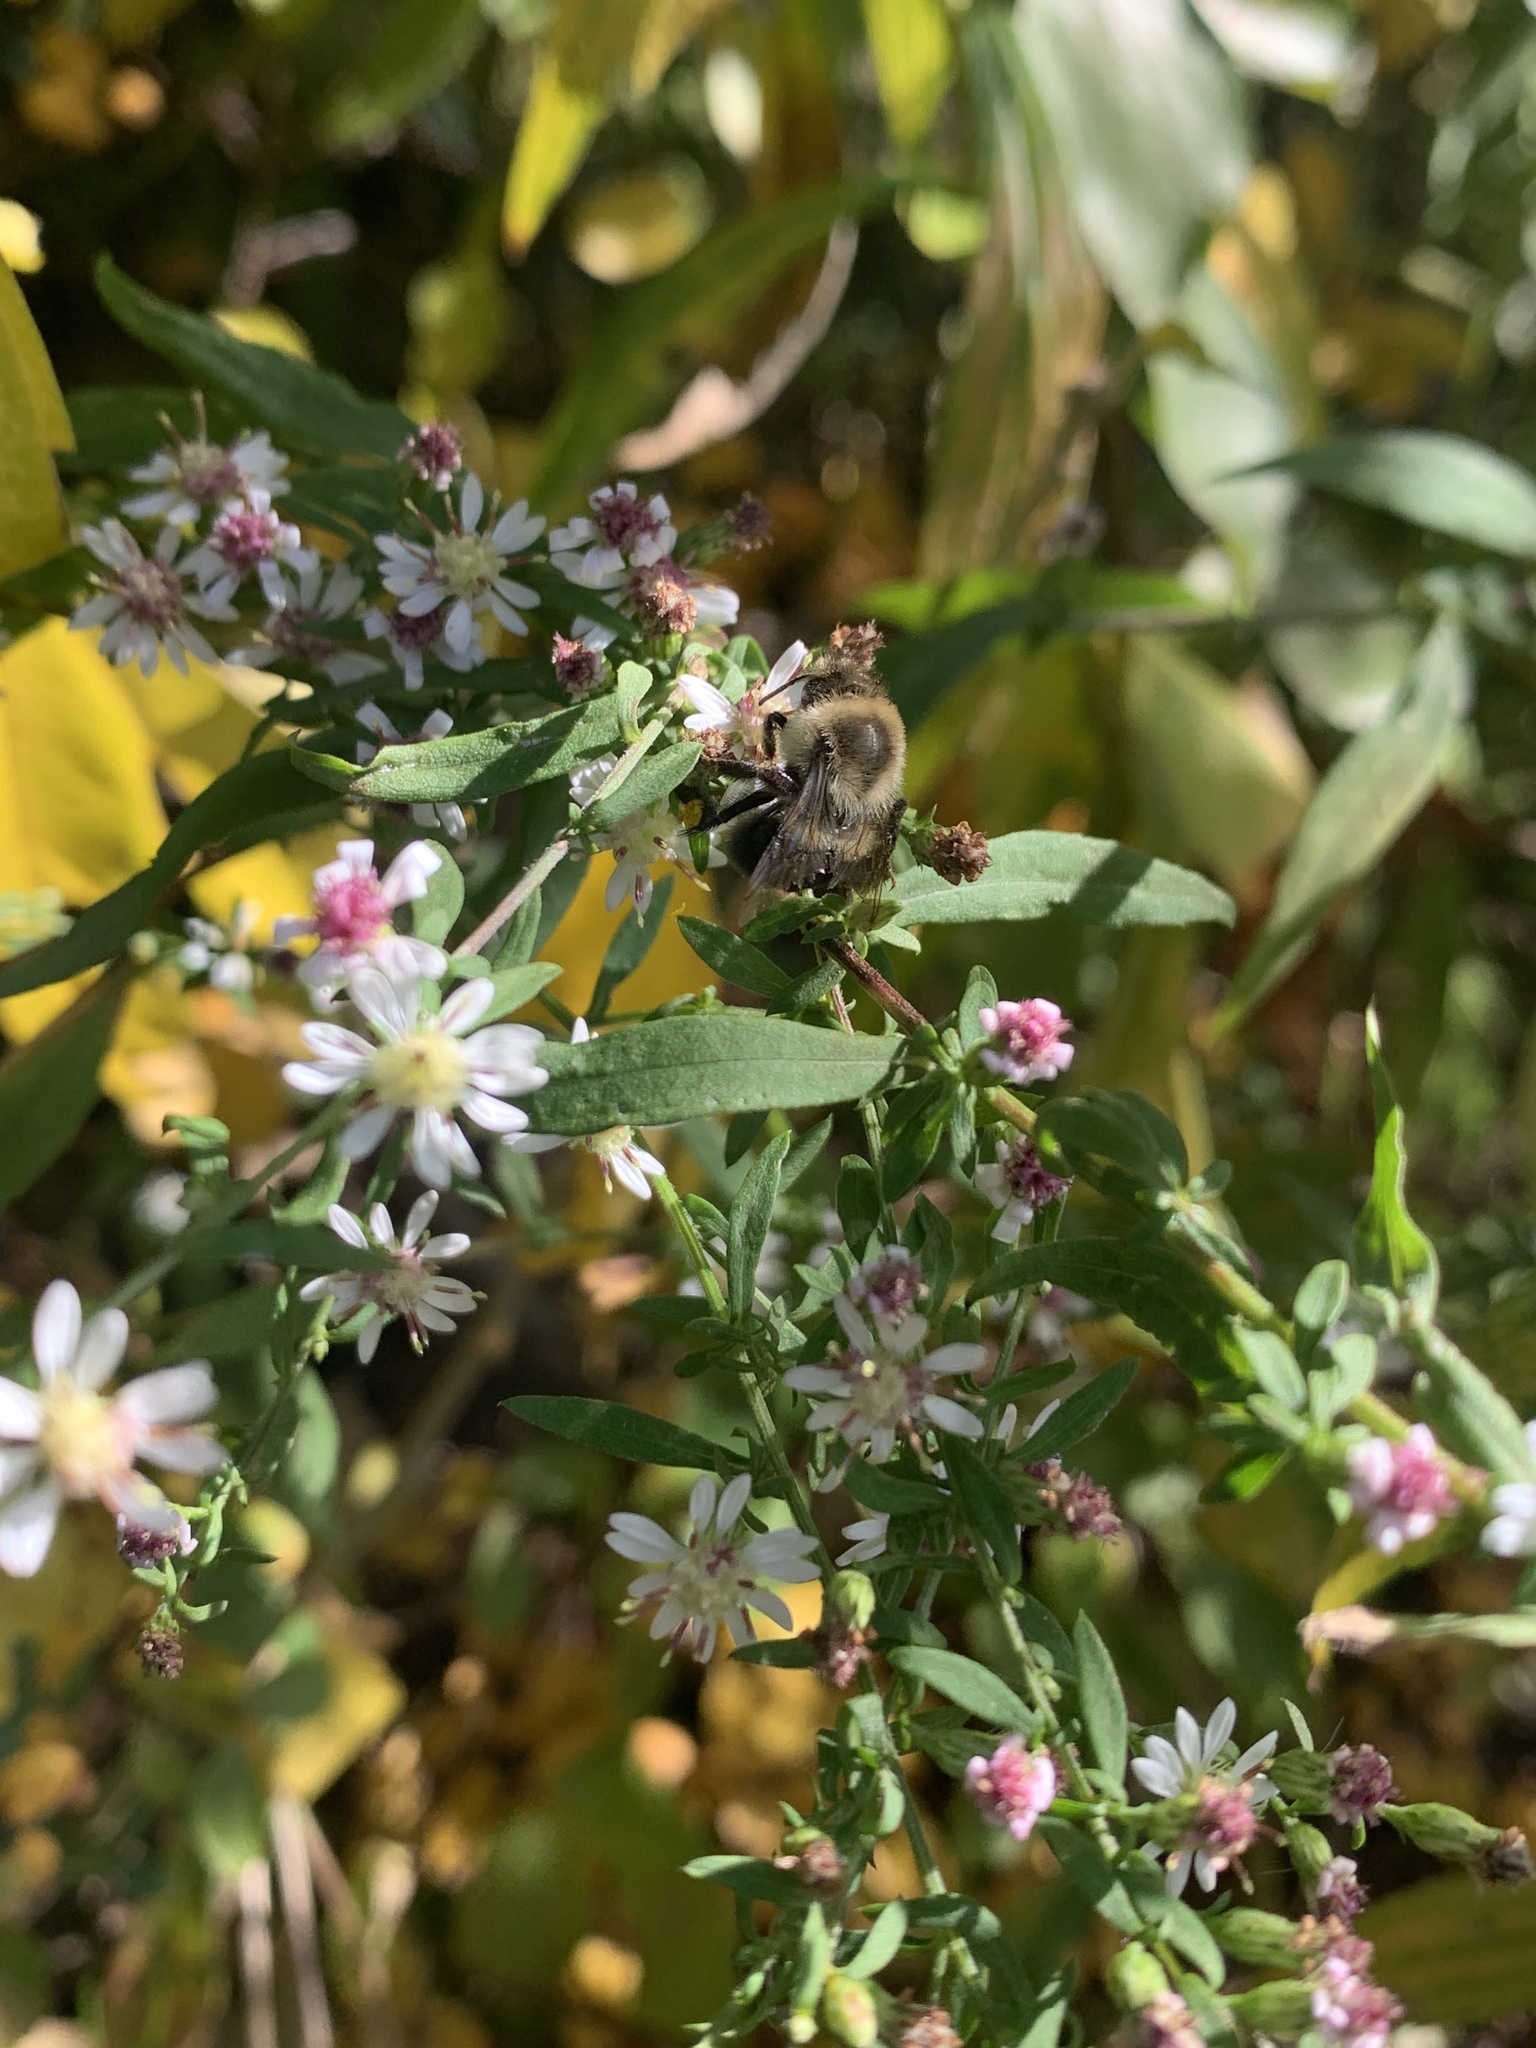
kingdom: Animalia
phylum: Arthropoda
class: Insecta
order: Hymenoptera
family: Apidae
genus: Bombus
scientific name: Bombus impatiens
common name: Common eastern bumble bee
